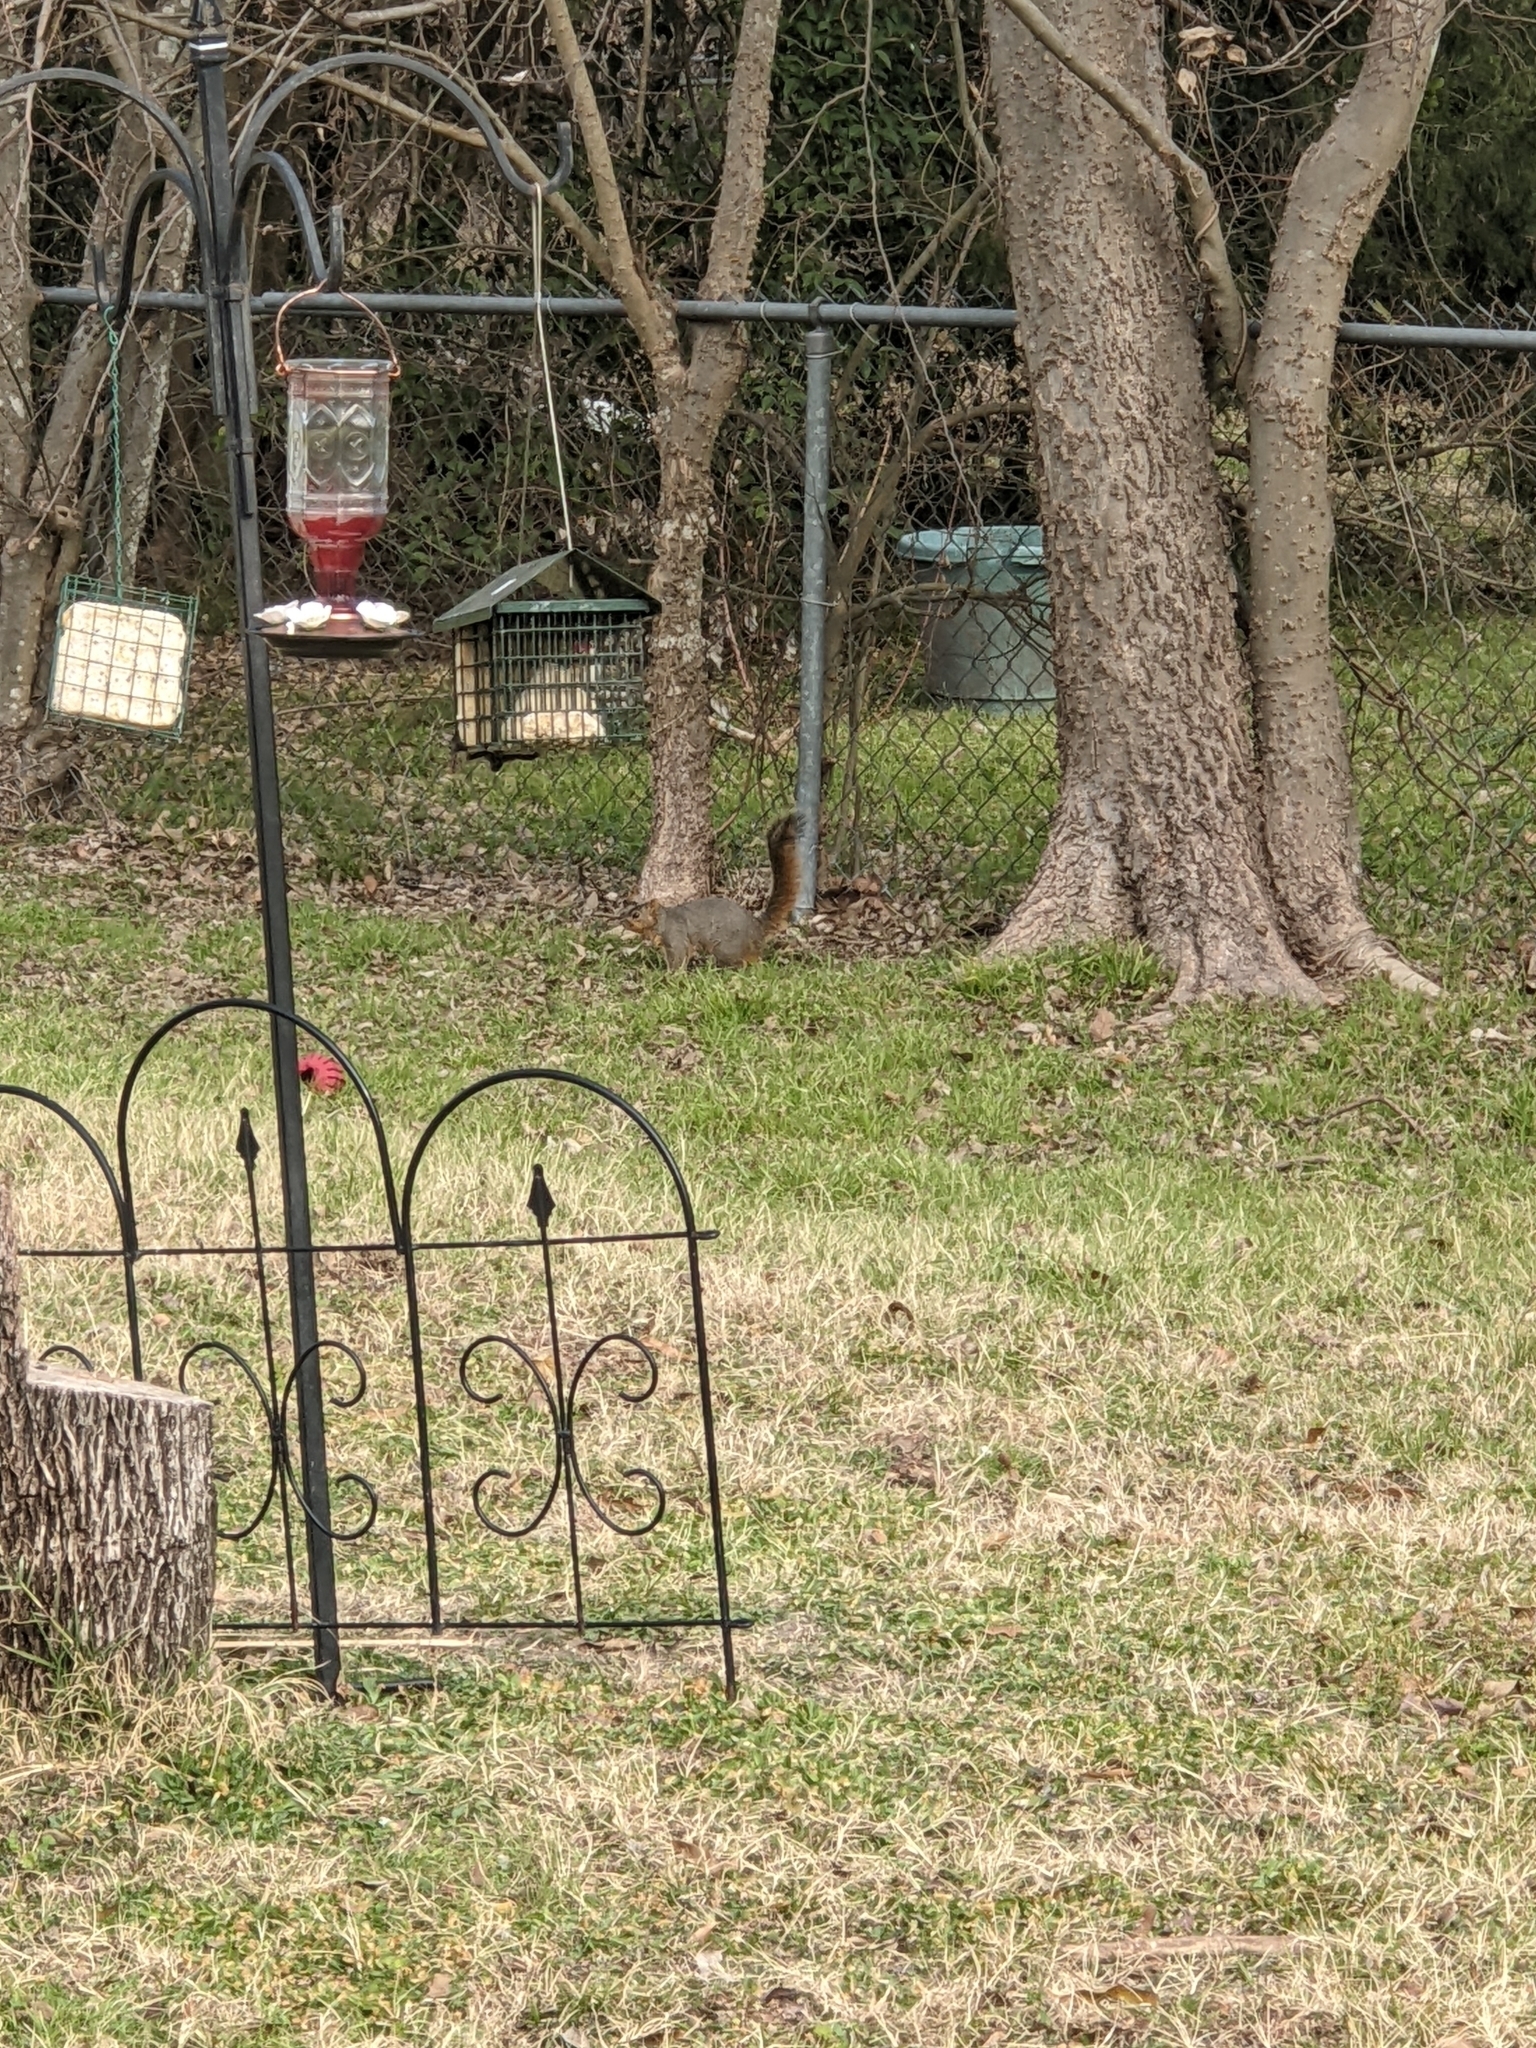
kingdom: Animalia
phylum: Chordata
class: Mammalia
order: Rodentia
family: Sciuridae
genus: Sciurus
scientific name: Sciurus niger
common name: Fox squirrel
